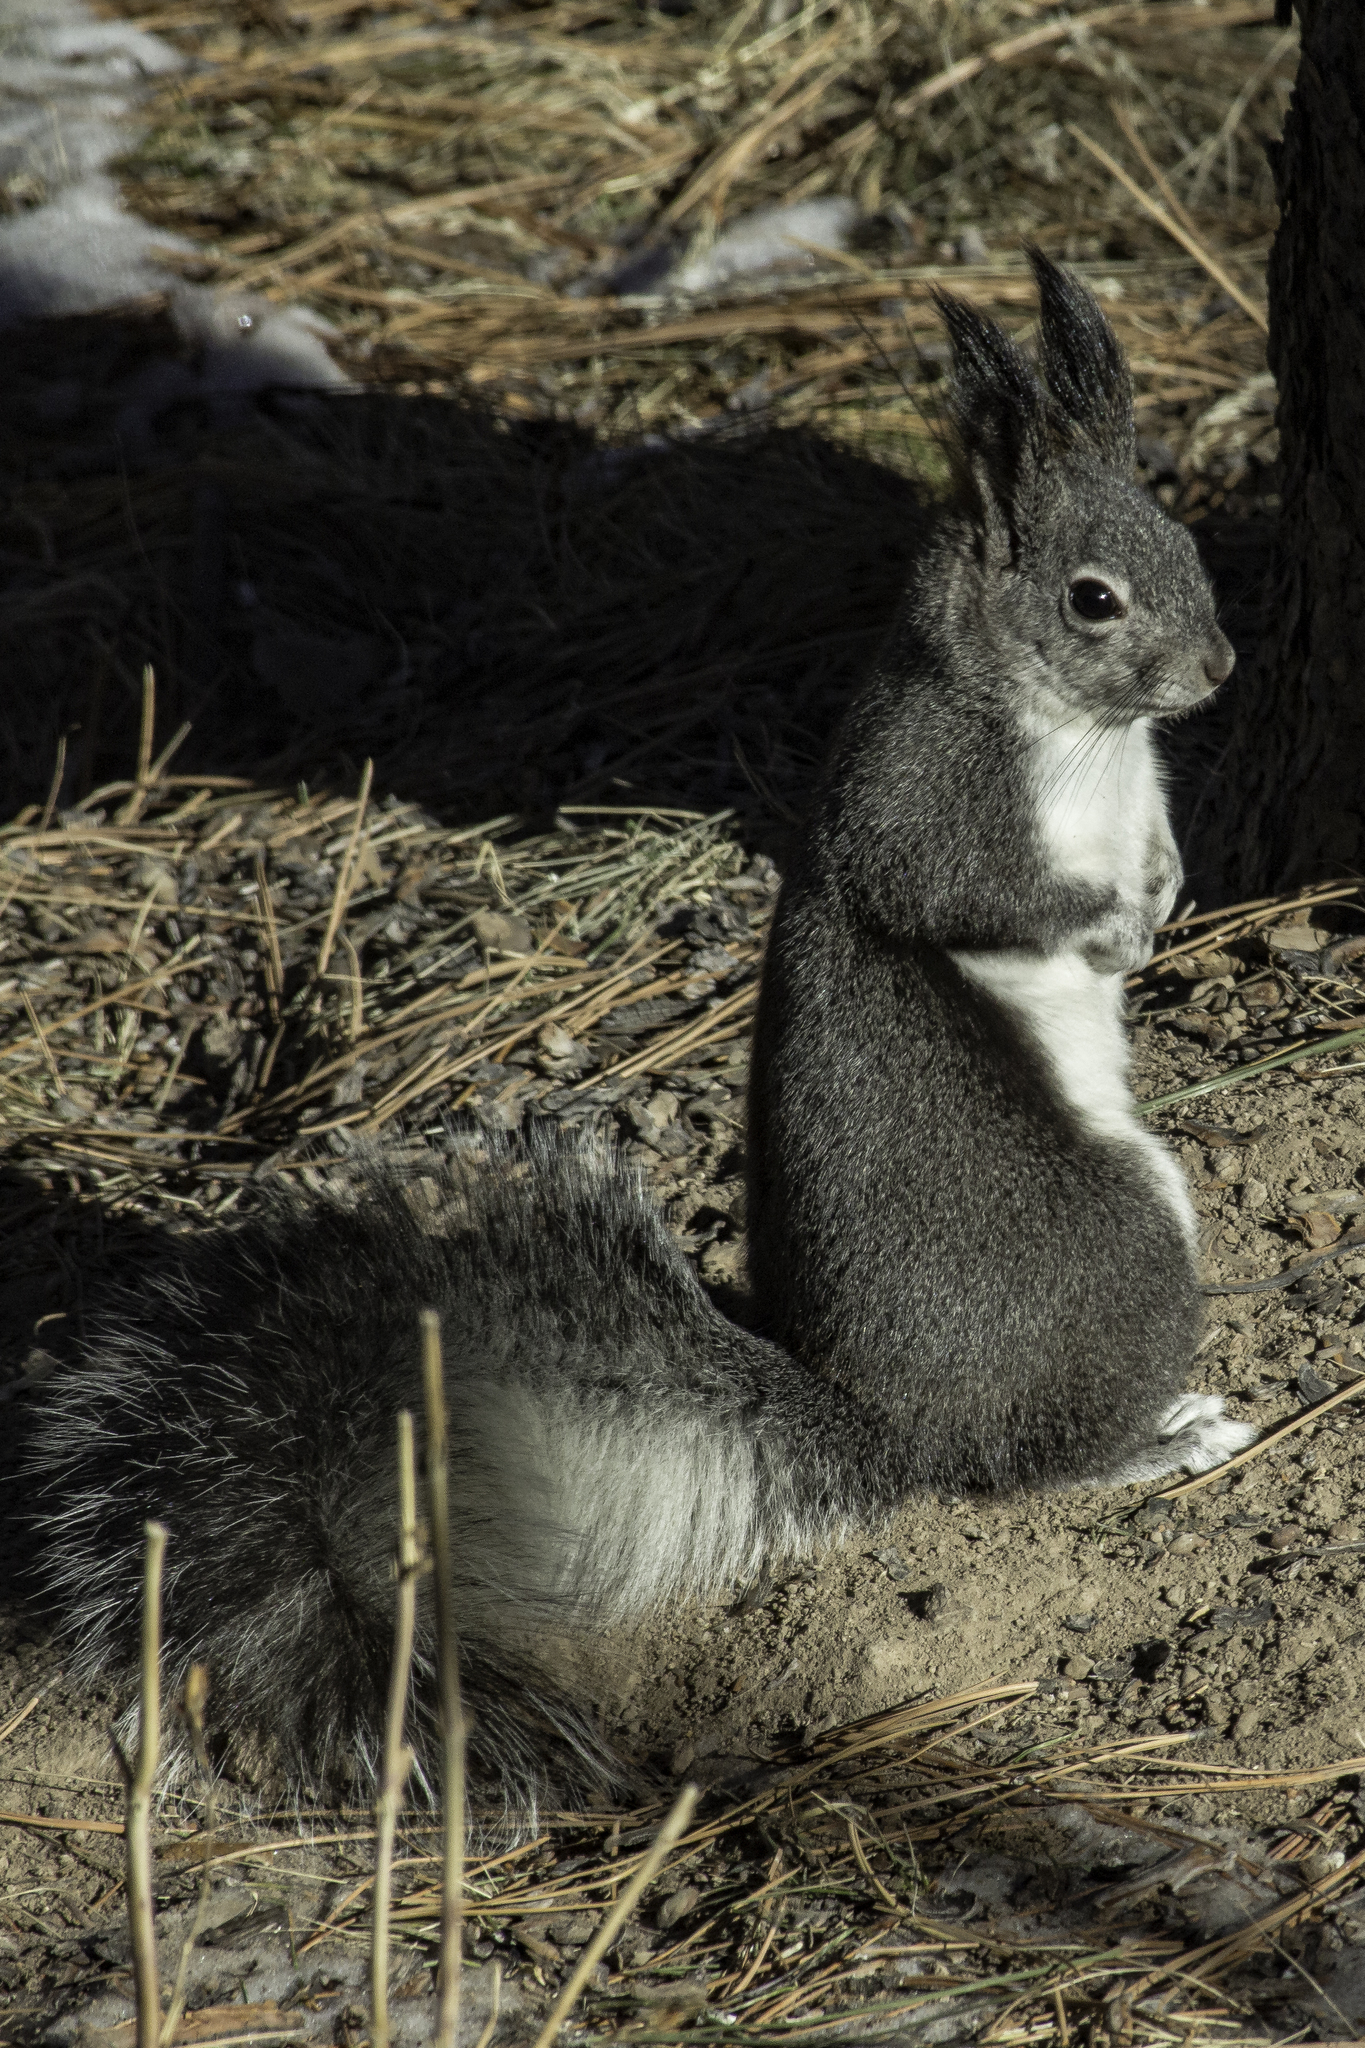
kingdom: Animalia
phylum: Chordata
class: Mammalia
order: Rodentia
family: Sciuridae
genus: Sciurus
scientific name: Sciurus aberti
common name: Abert's squirrel
